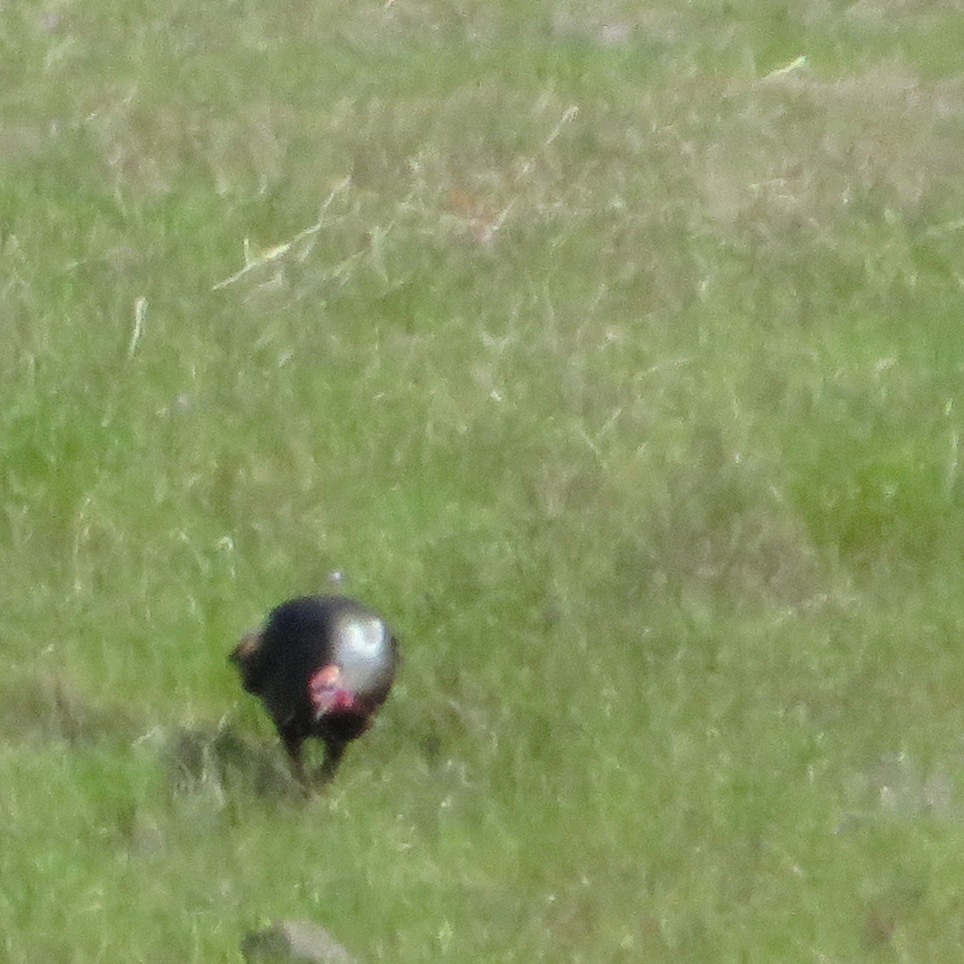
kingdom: Animalia
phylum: Chordata
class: Aves
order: Galliformes
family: Phasianidae
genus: Meleagris
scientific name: Meleagris gallopavo
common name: Wild turkey
